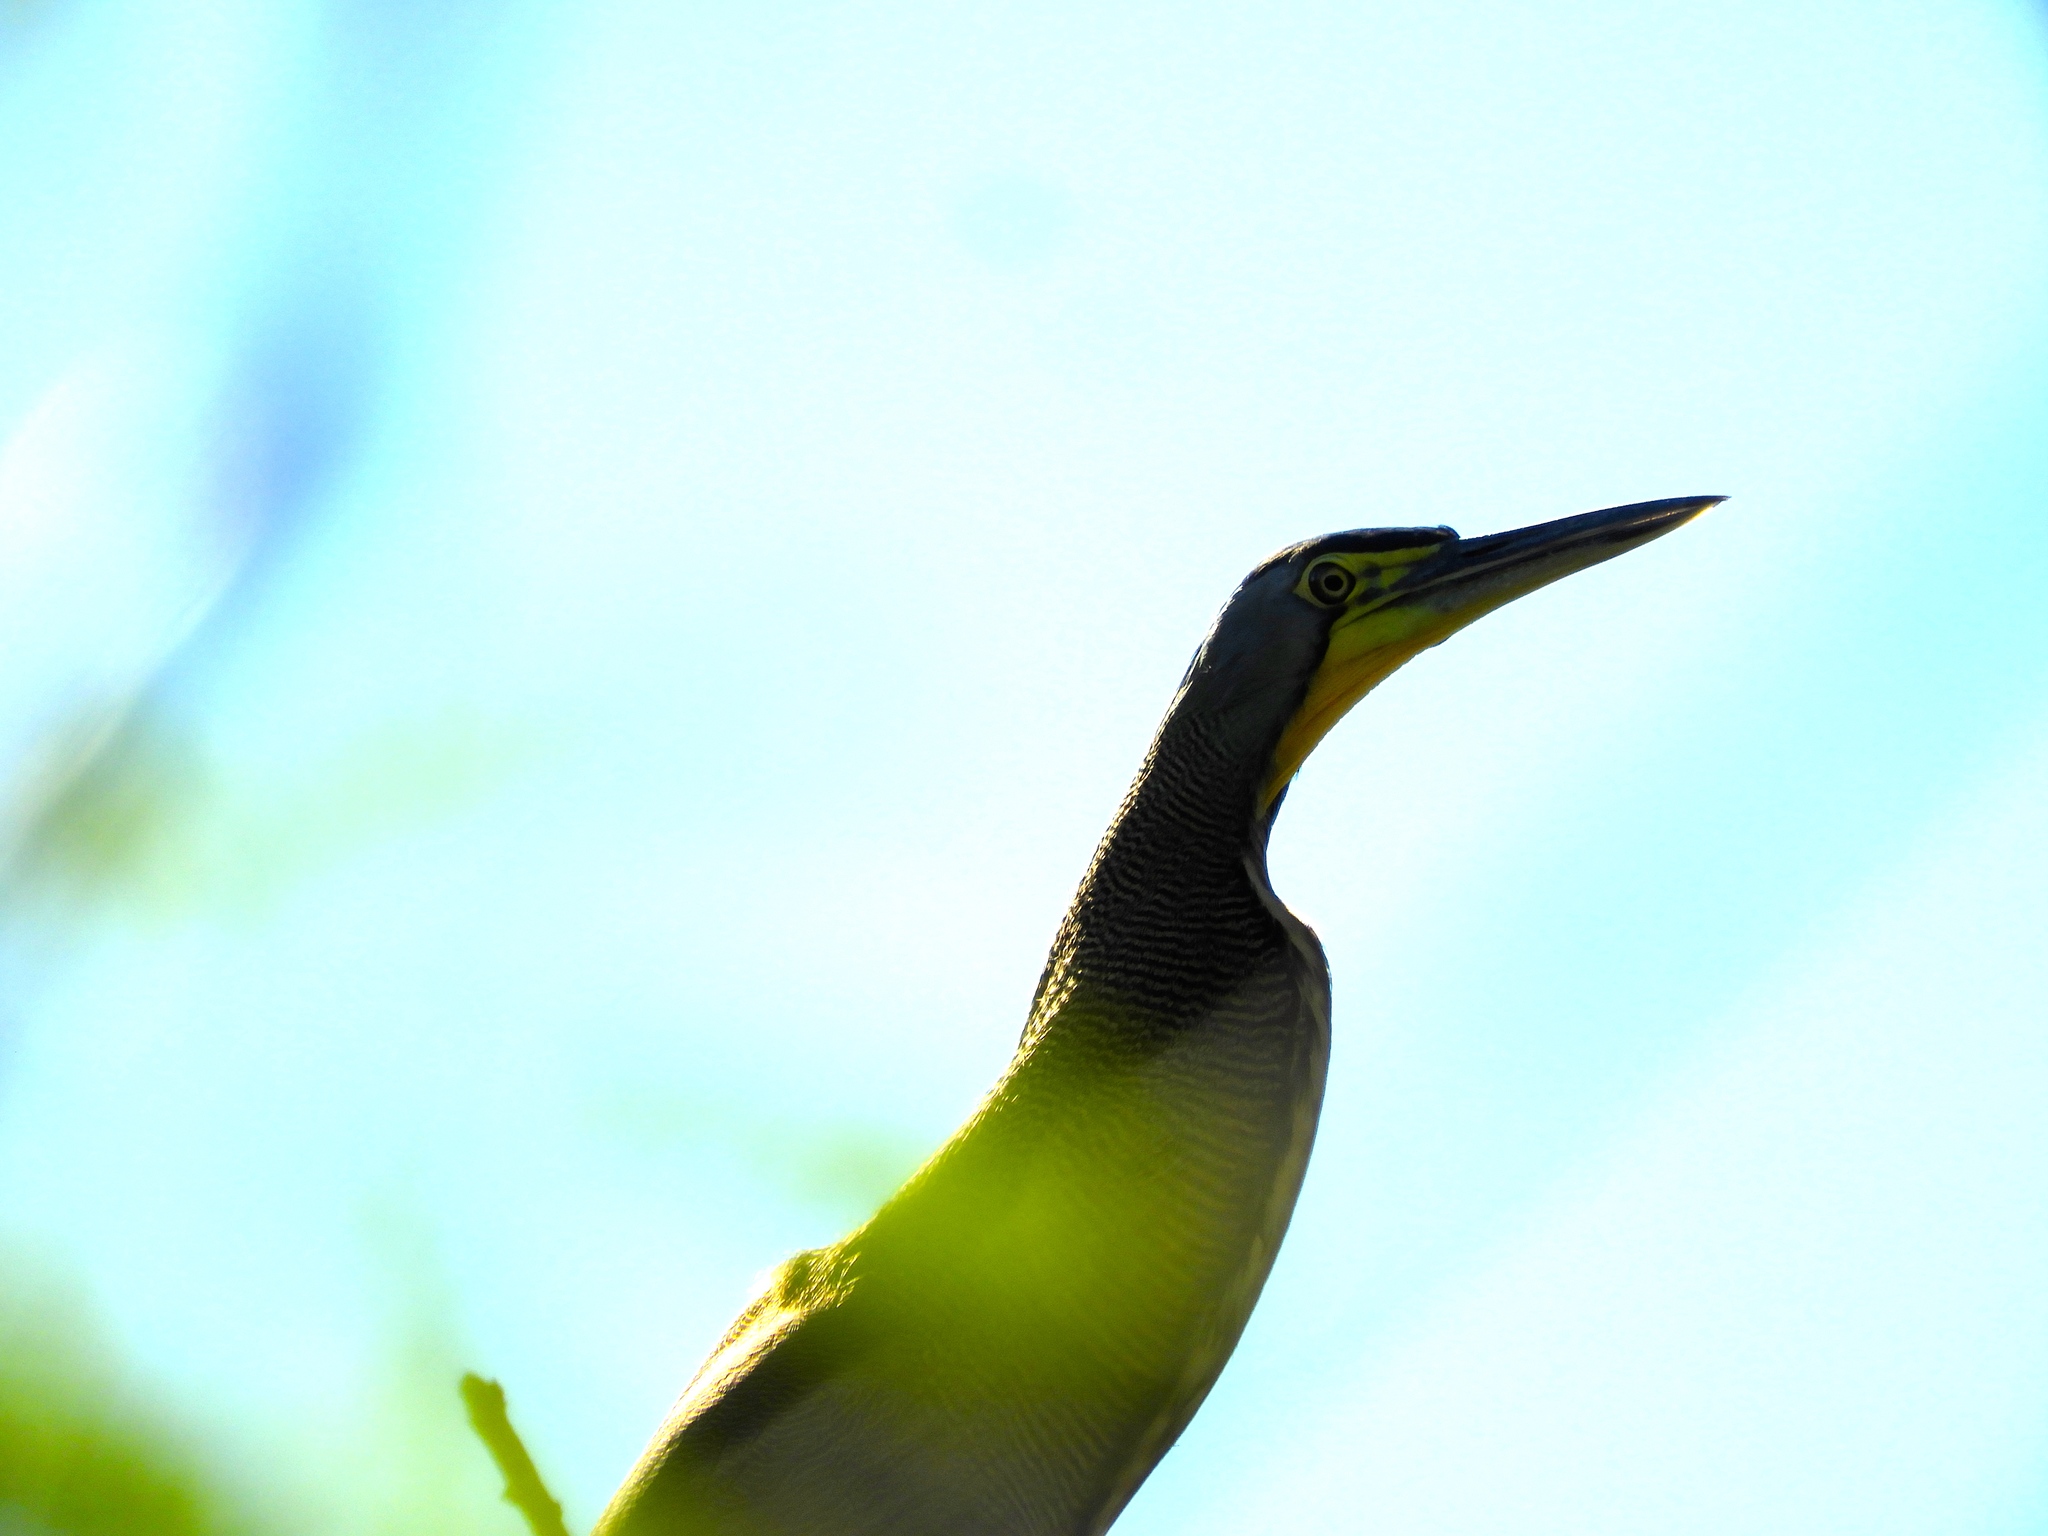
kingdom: Animalia
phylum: Chordata
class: Aves
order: Pelecaniformes
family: Ardeidae
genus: Tigrisoma
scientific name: Tigrisoma mexicanum
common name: Bare-throated tiger-heron
